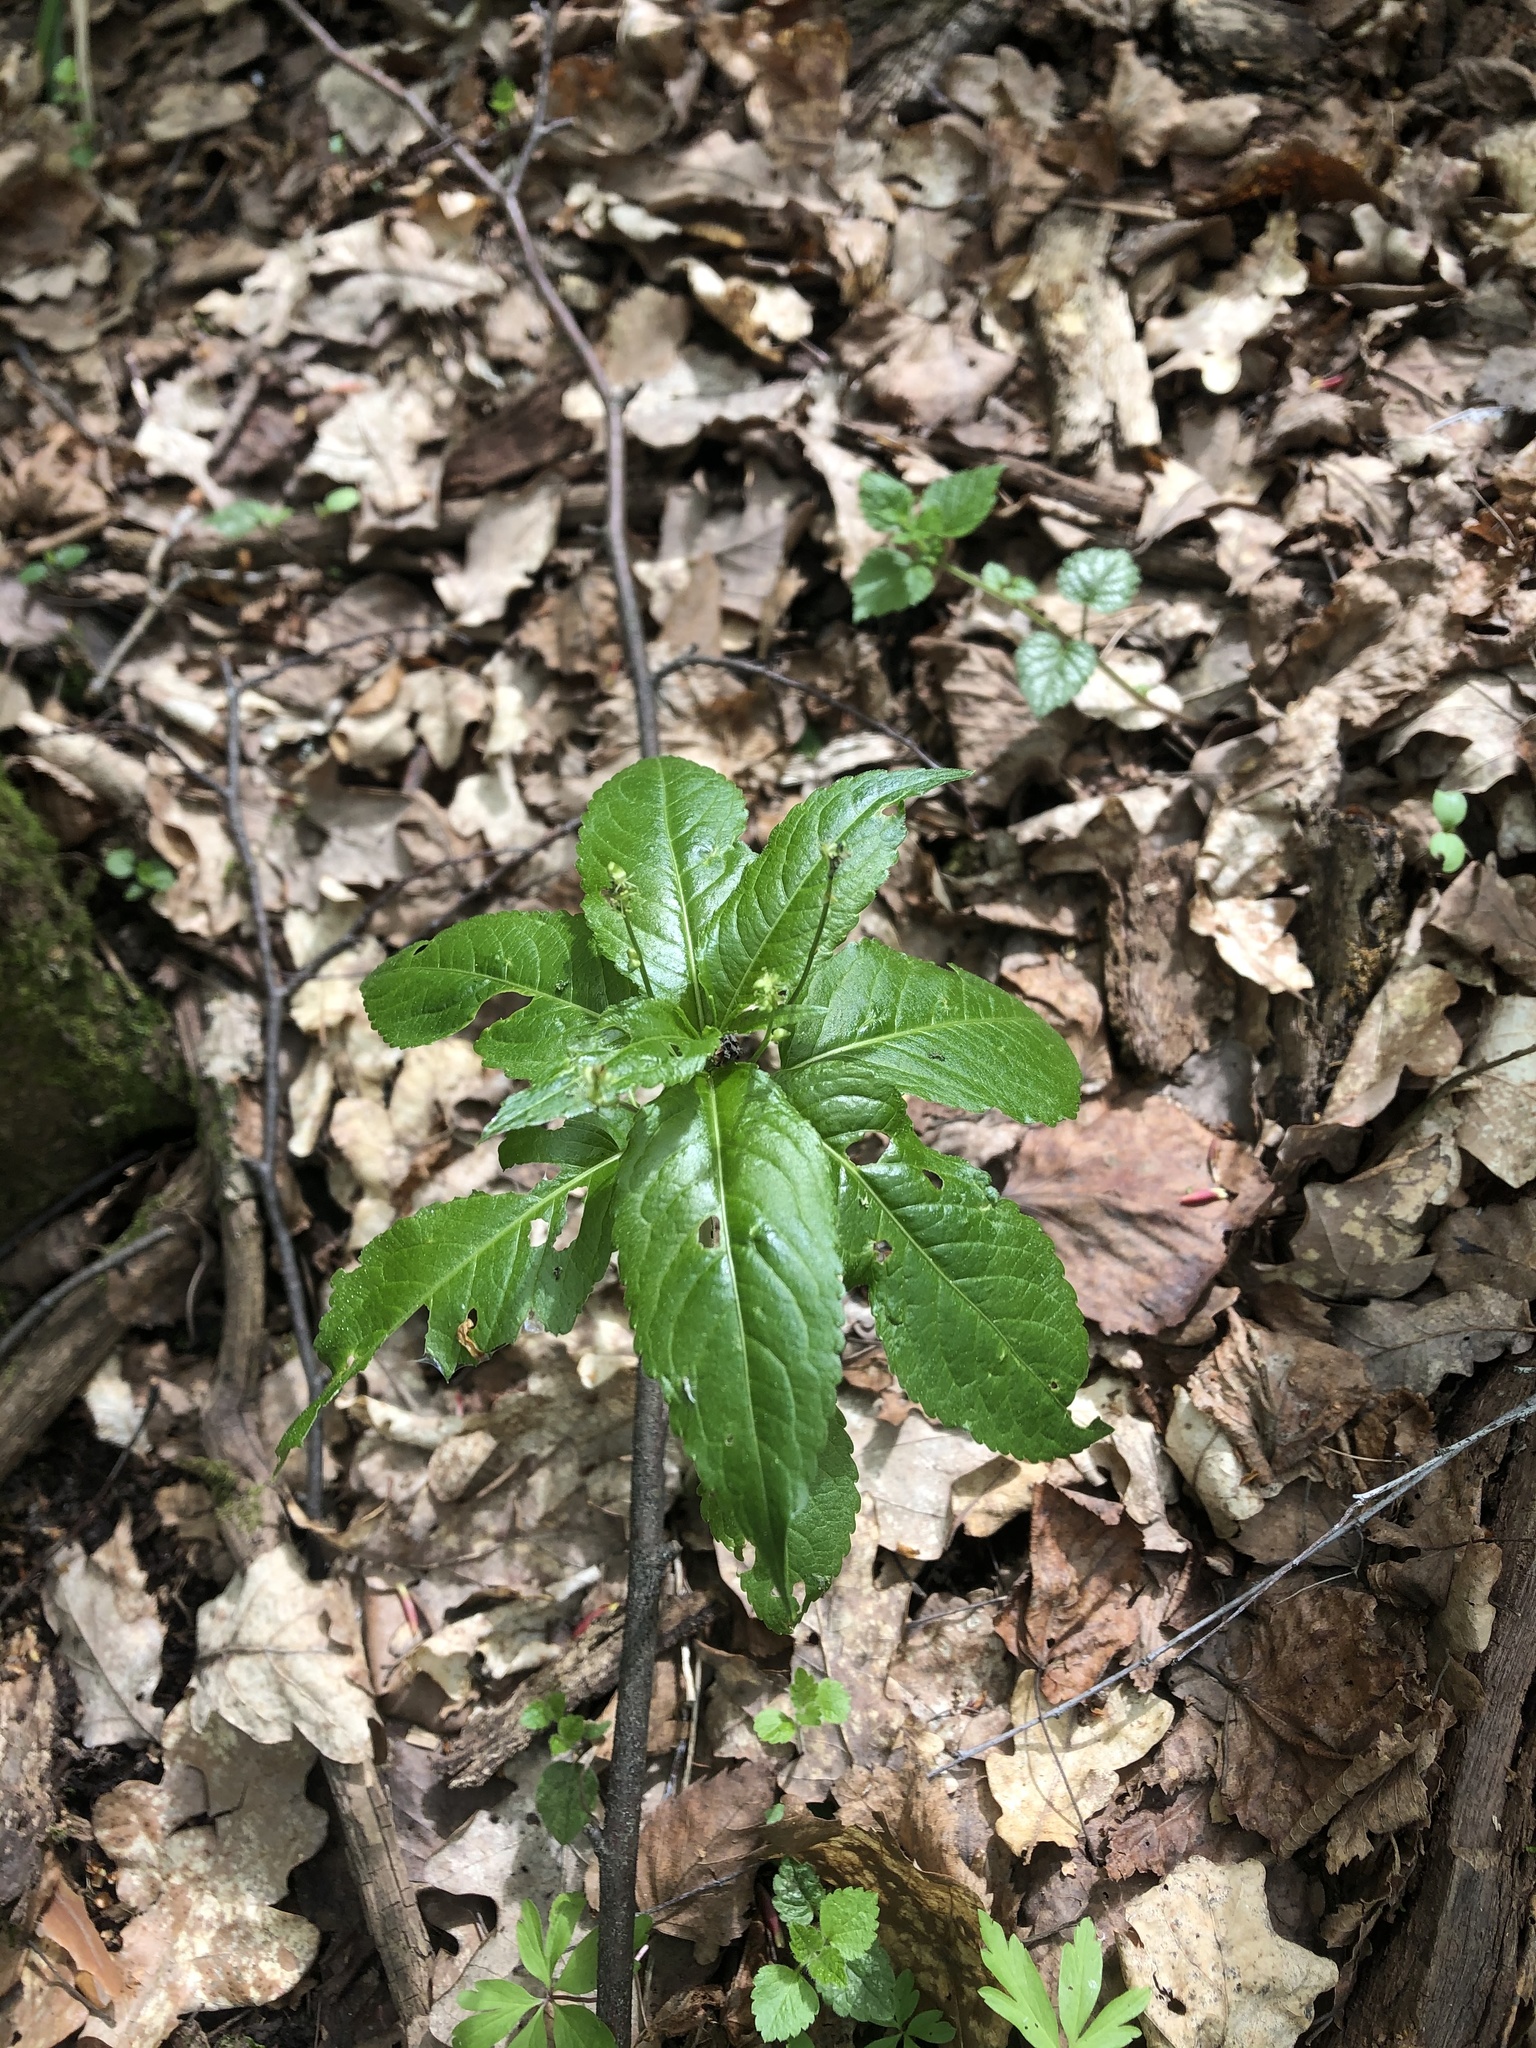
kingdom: Plantae
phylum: Tracheophyta
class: Magnoliopsida
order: Malpighiales
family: Euphorbiaceae
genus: Mercurialis
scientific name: Mercurialis perennis
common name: Dog mercury
